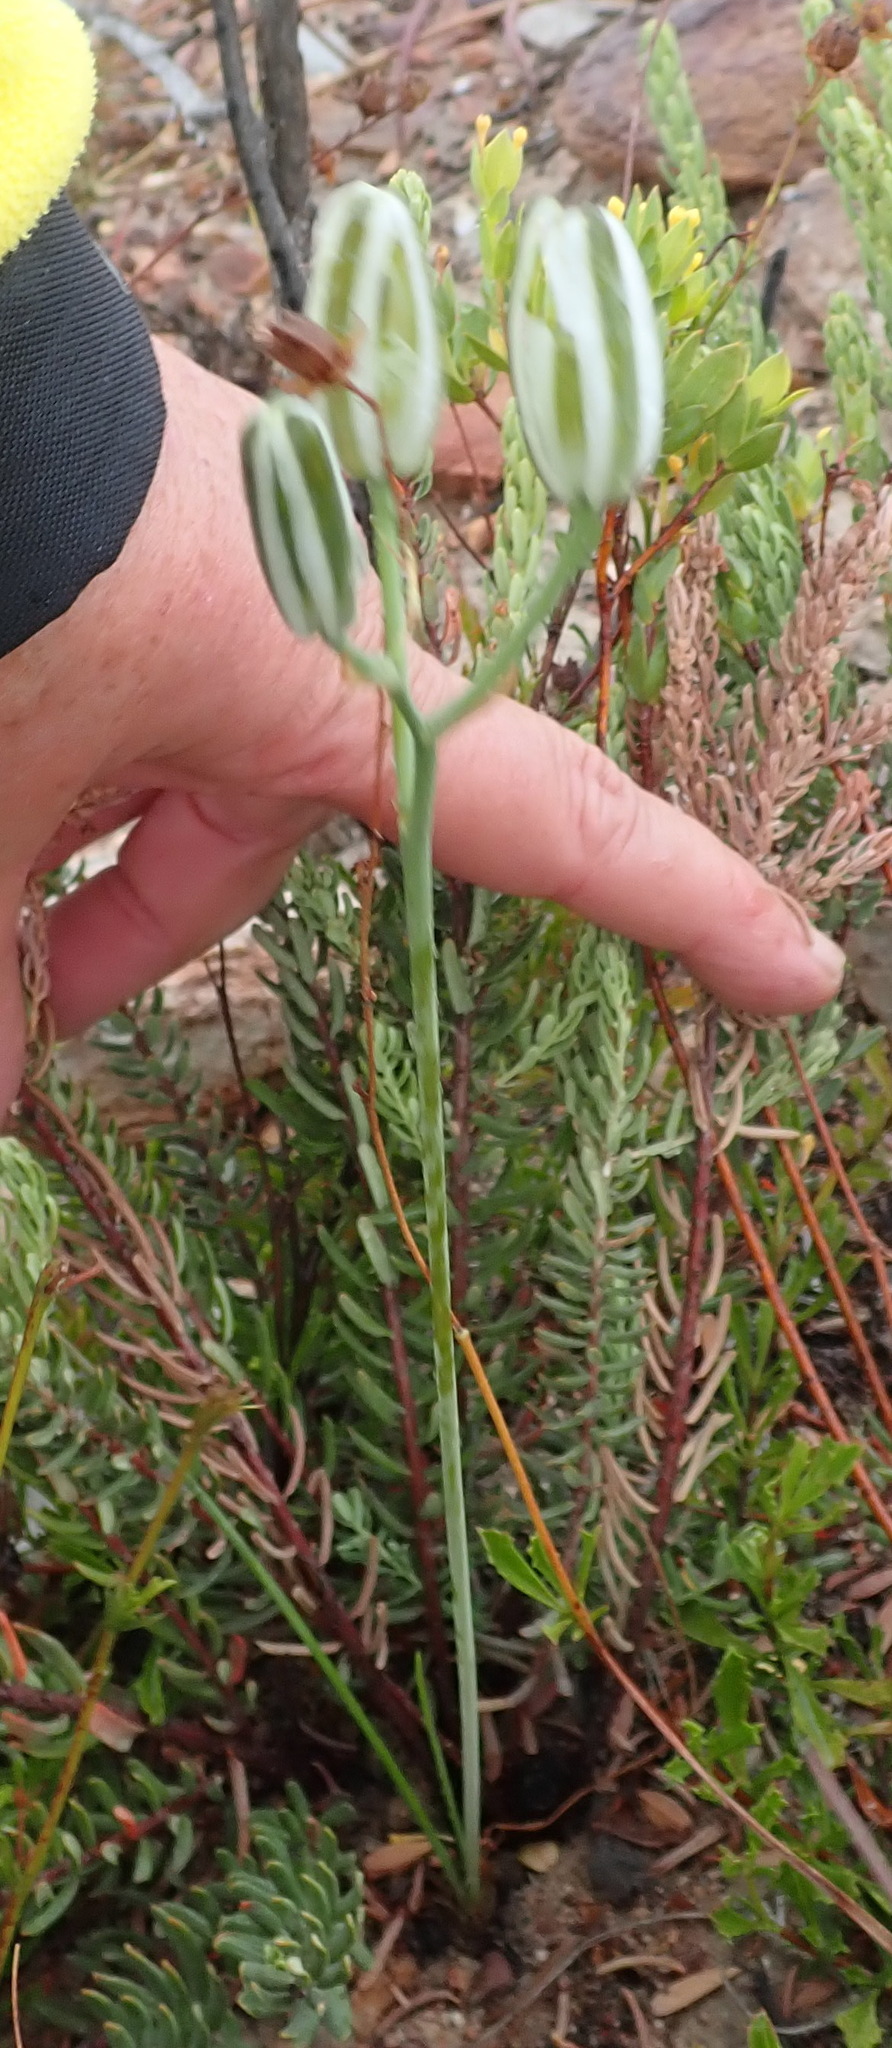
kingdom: Plantae
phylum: Tracheophyta
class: Liliopsida
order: Asparagales
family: Asparagaceae
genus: Albuca
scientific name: Albuca longipes
